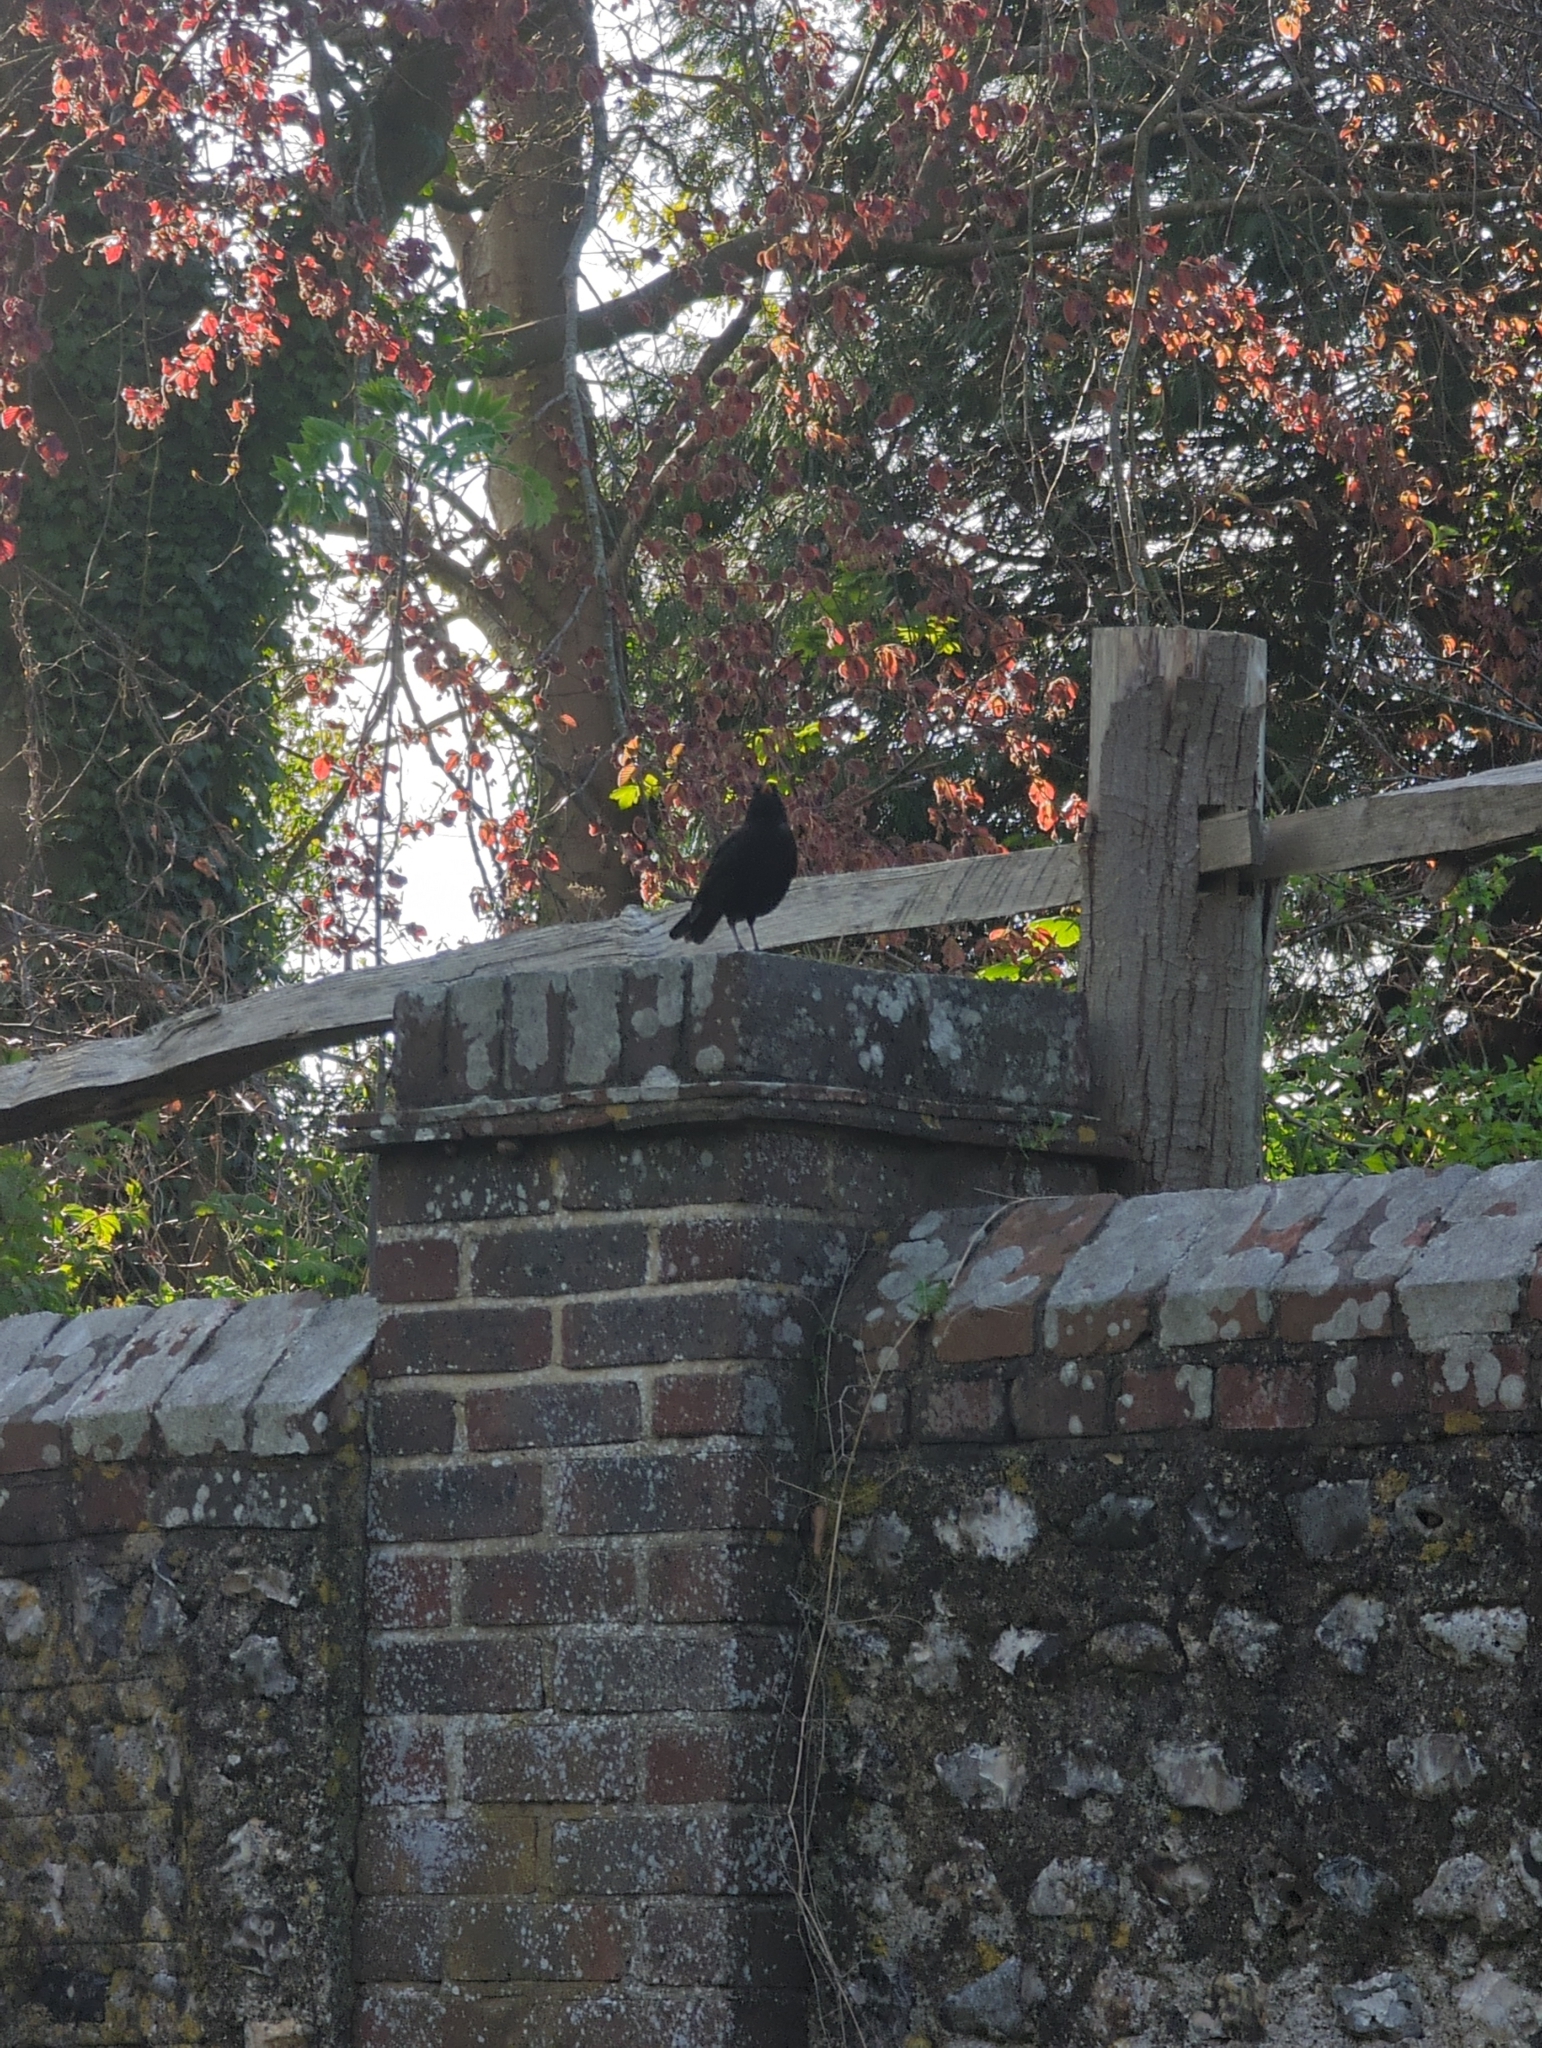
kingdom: Animalia
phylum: Chordata
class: Aves
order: Passeriformes
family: Turdidae
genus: Turdus
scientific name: Turdus merula
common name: Common blackbird
